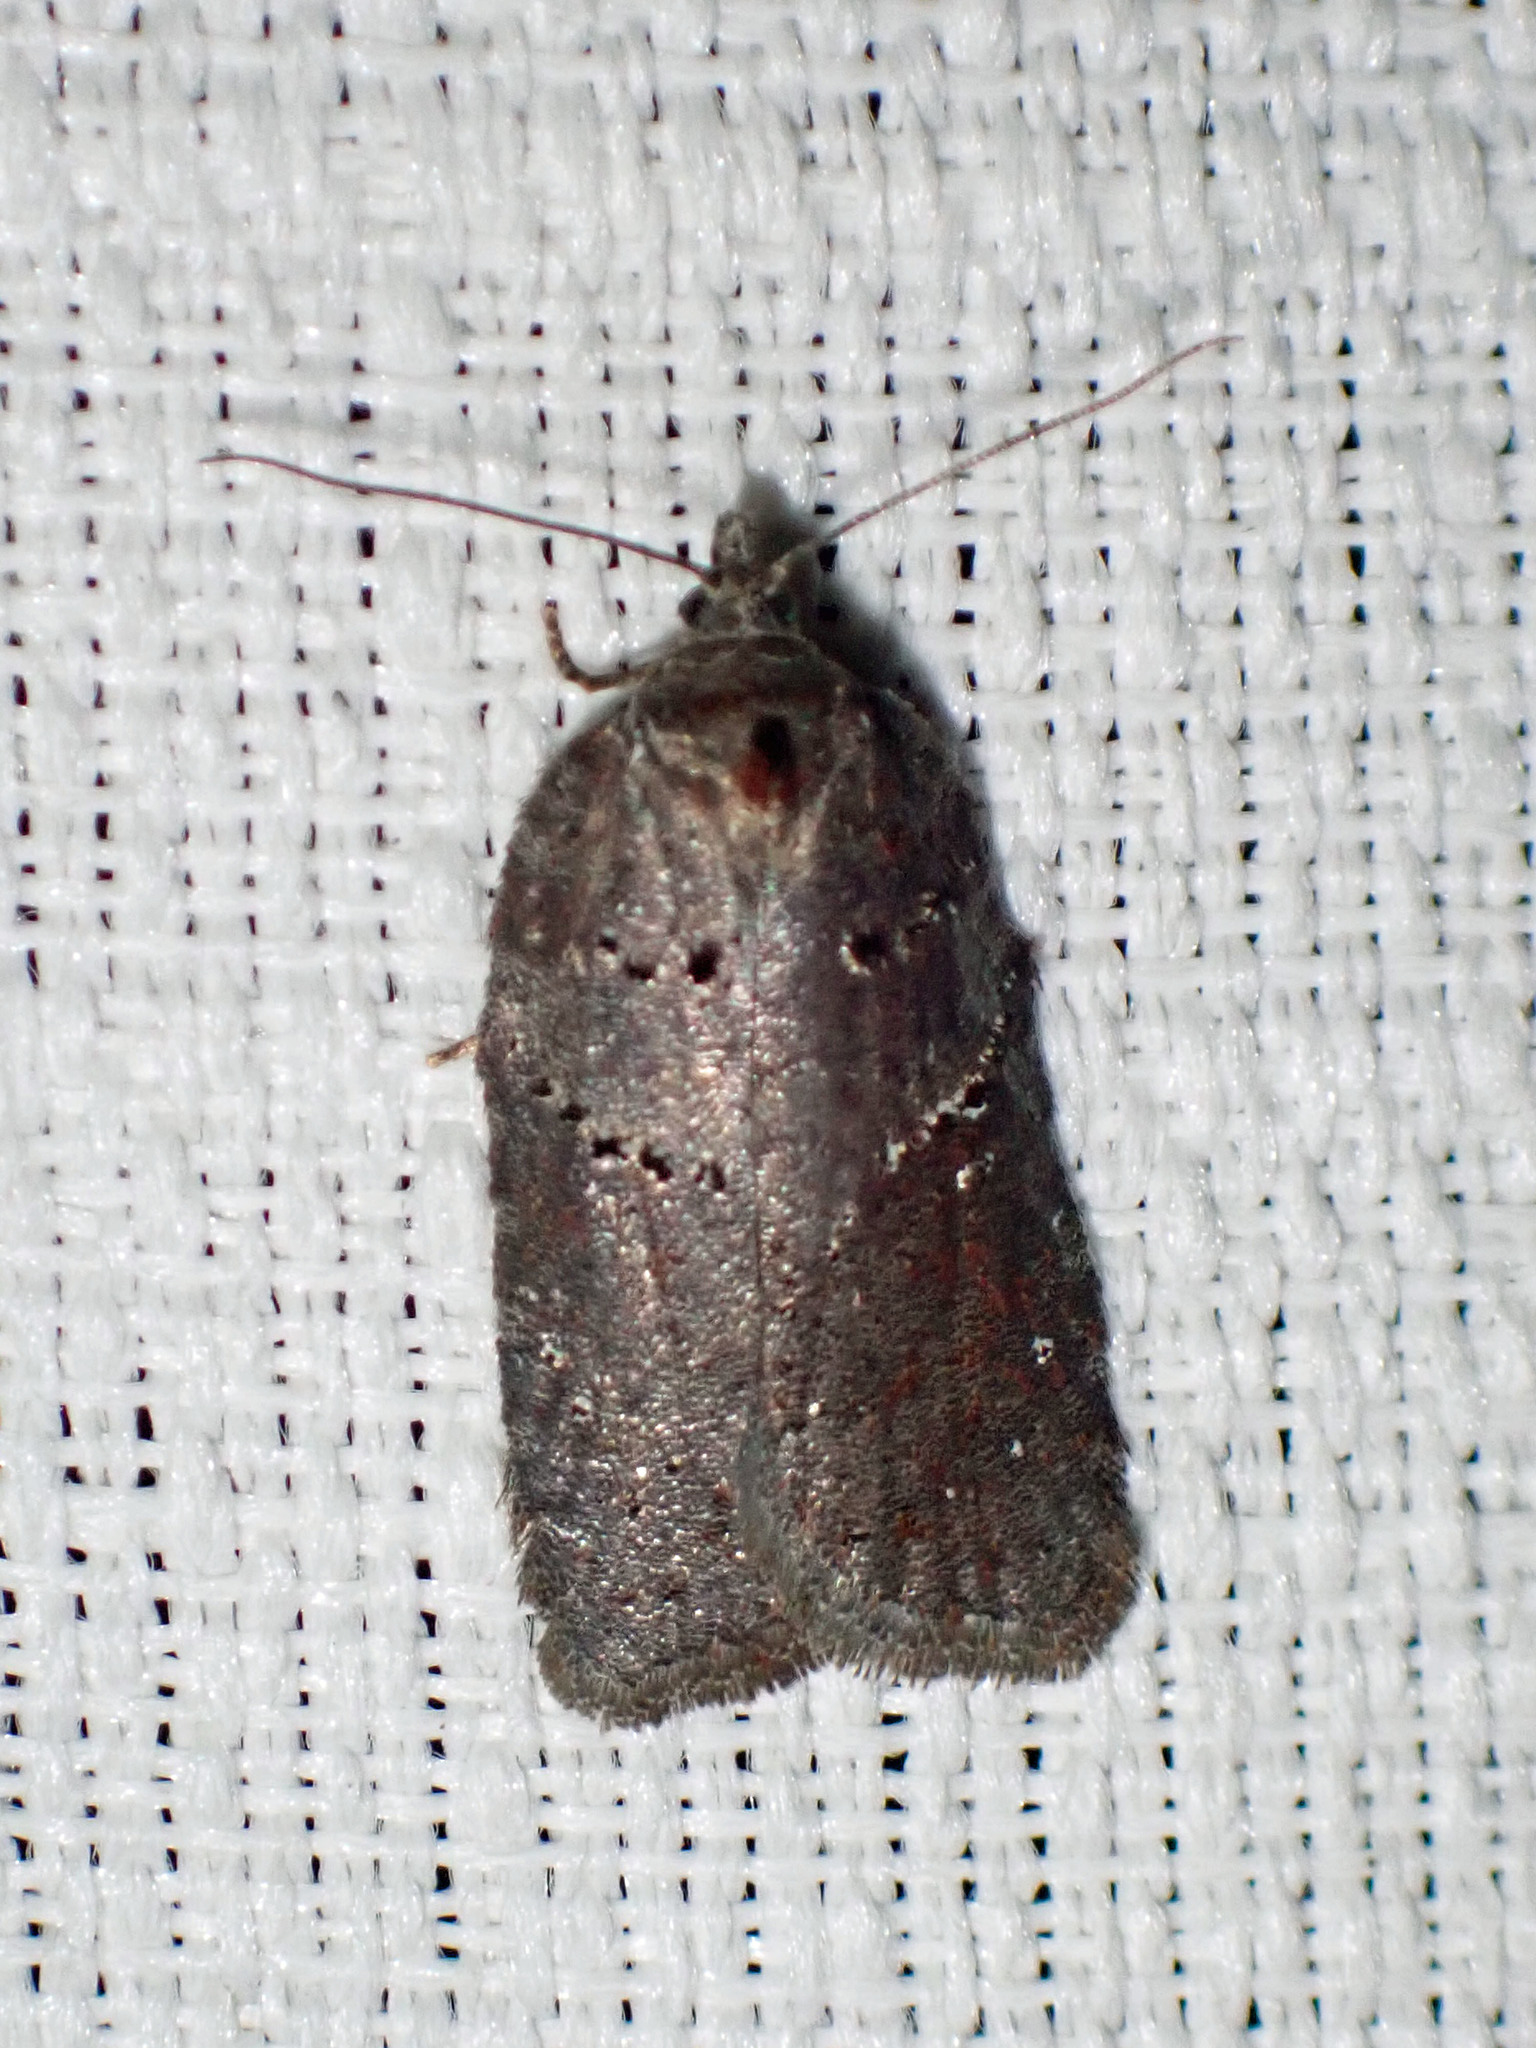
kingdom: Animalia
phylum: Arthropoda
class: Insecta
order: Lepidoptera
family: Tortricidae
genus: Acleris
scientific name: Acleris caliginosana
